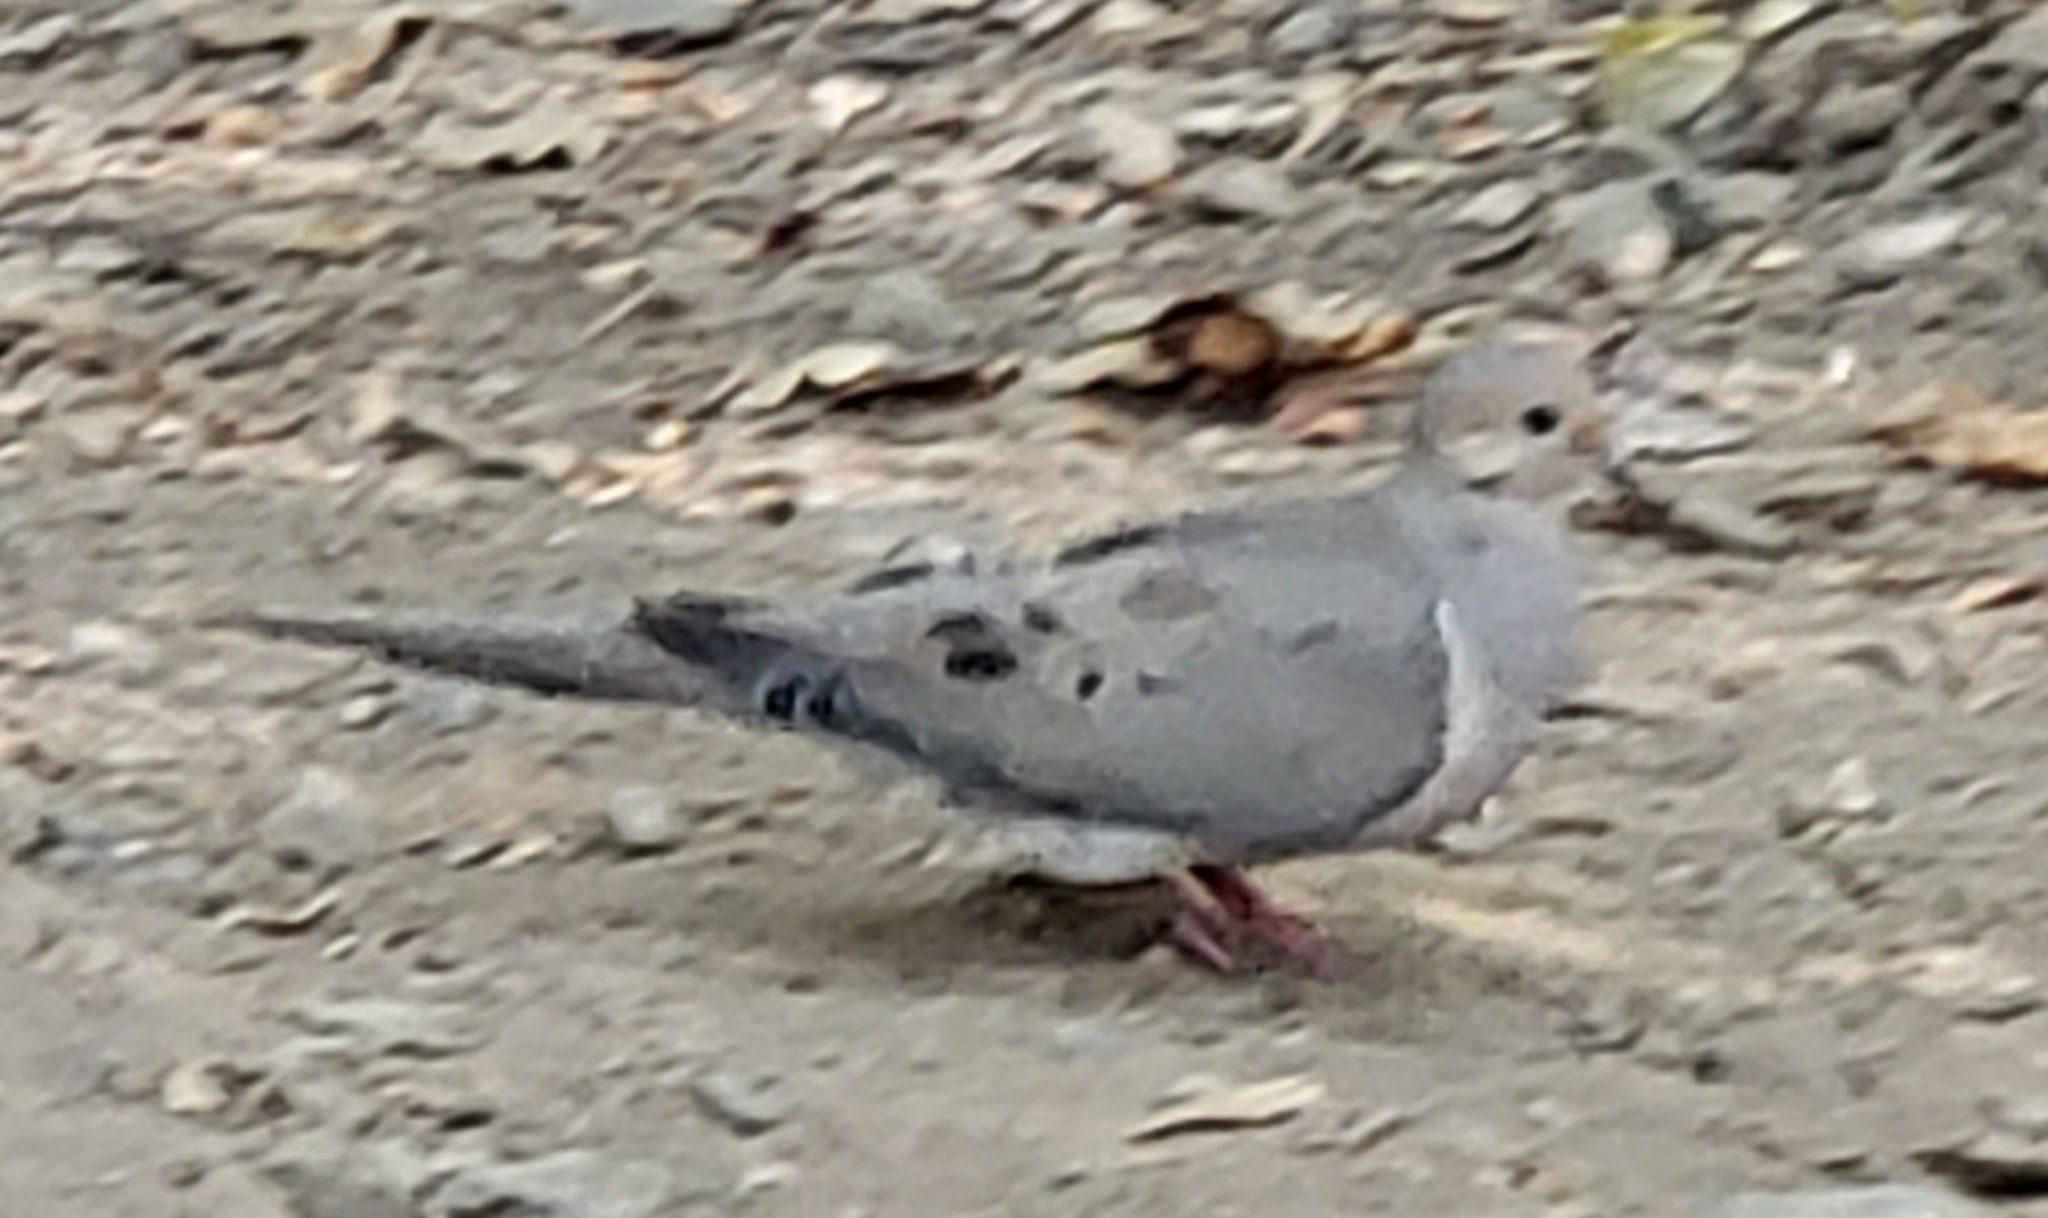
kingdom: Animalia
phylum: Chordata
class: Aves
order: Columbiformes
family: Columbidae
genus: Zenaida
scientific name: Zenaida macroura
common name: Mourning dove
